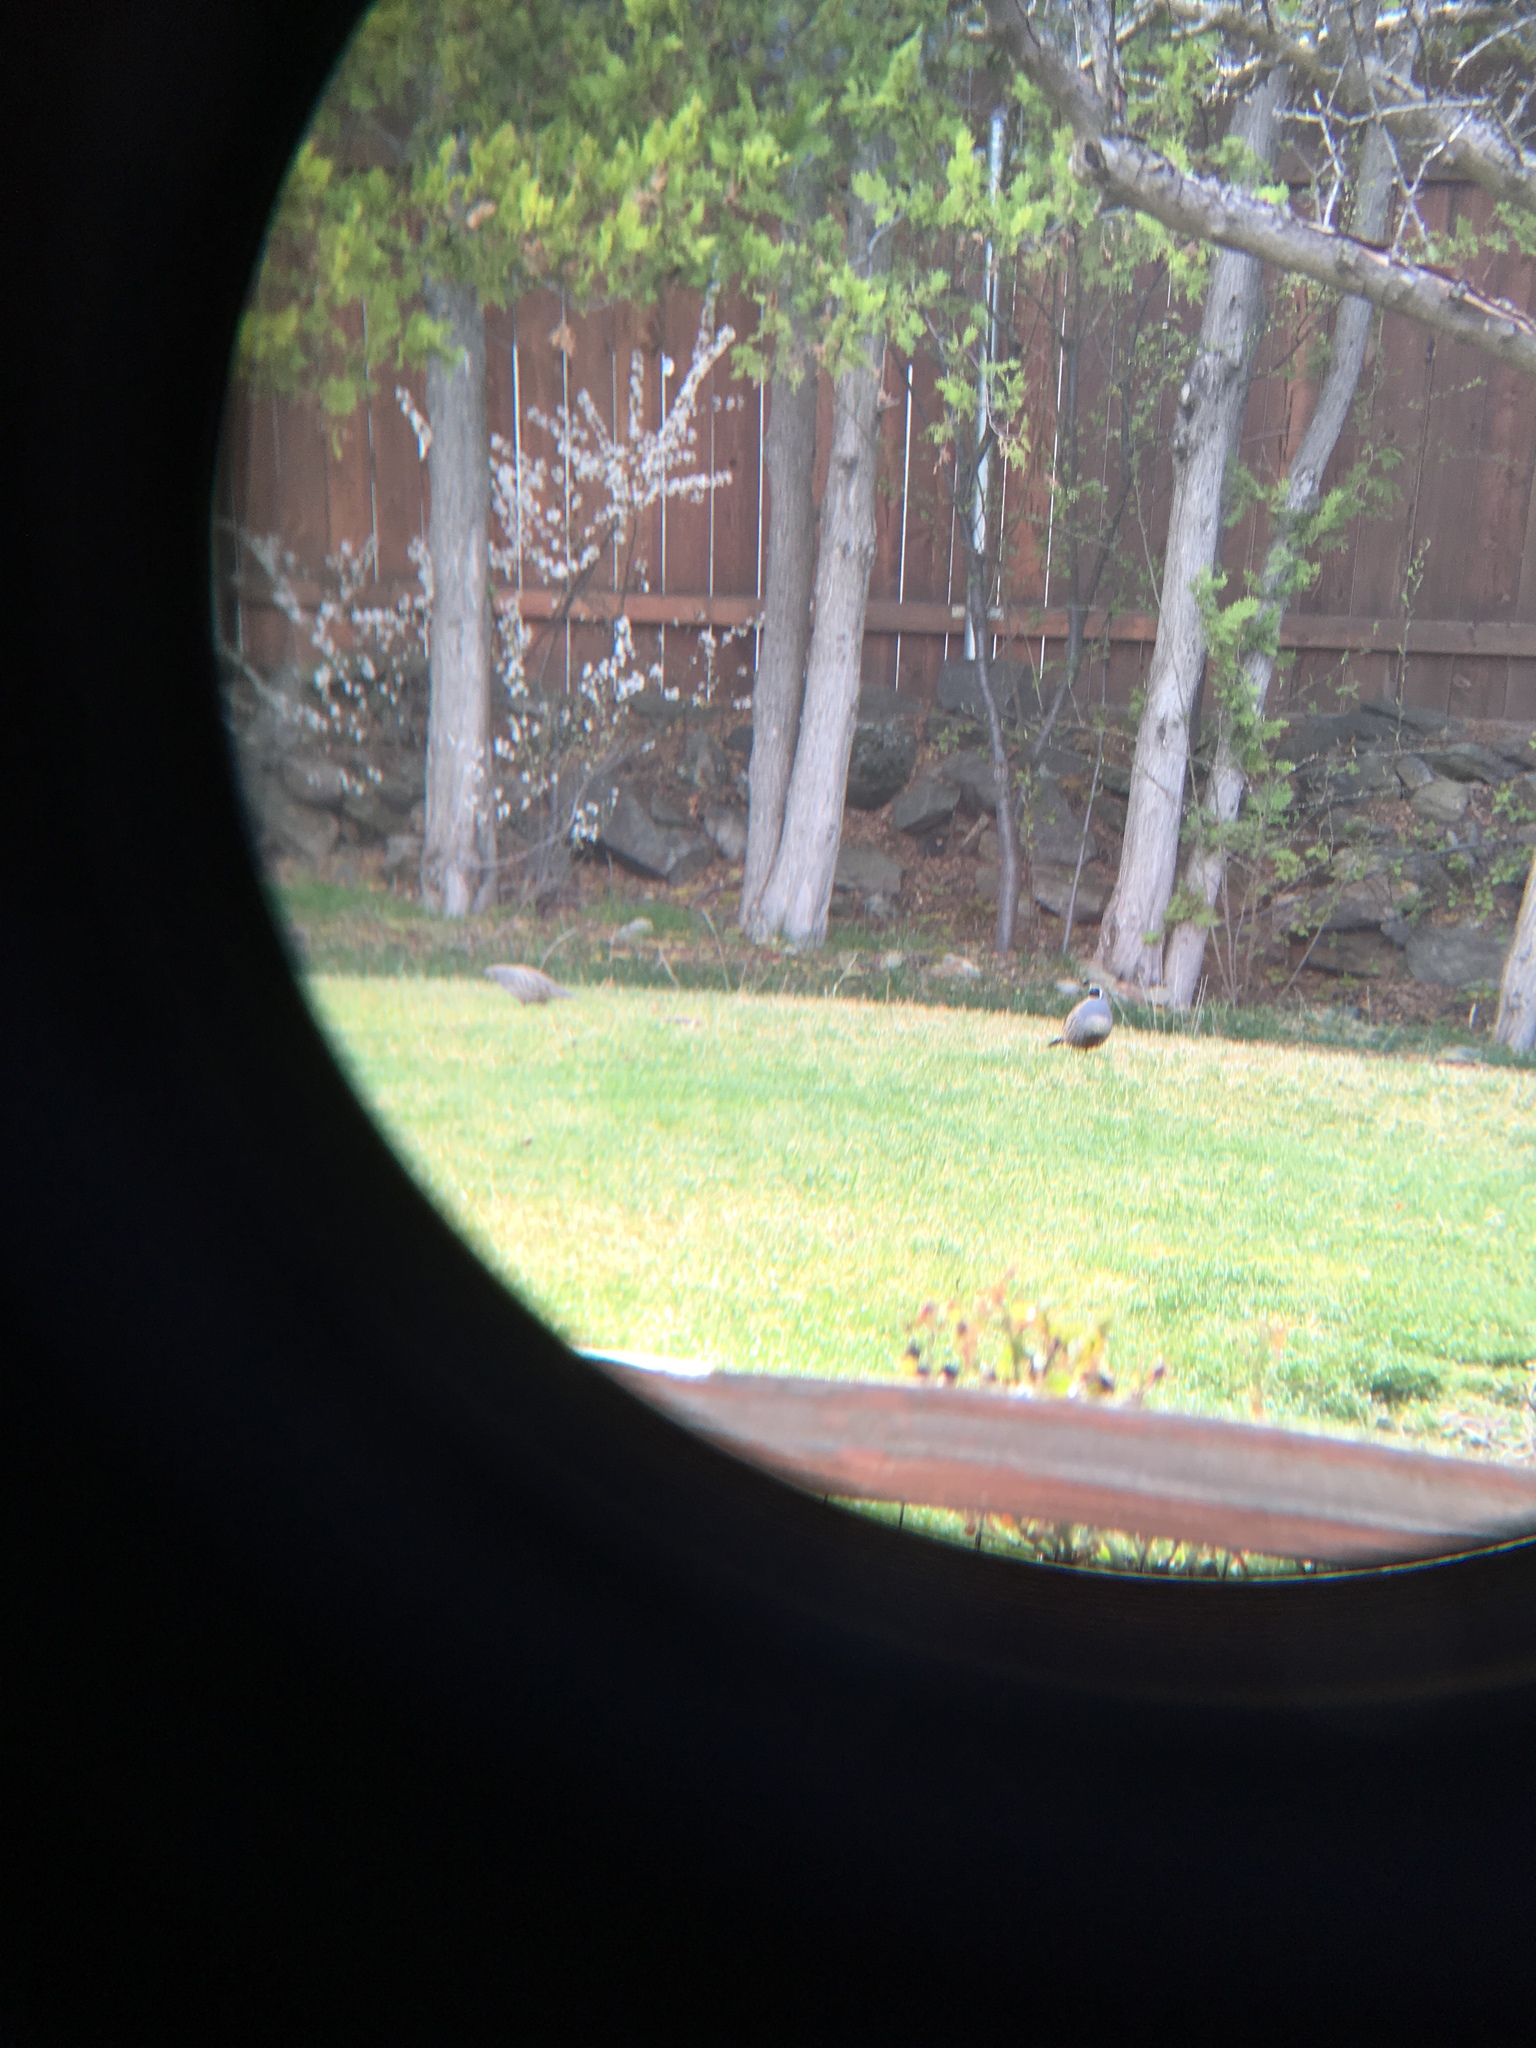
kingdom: Animalia
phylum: Chordata
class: Aves
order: Galliformes
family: Odontophoridae
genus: Callipepla
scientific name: Callipepla californica
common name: California quail
